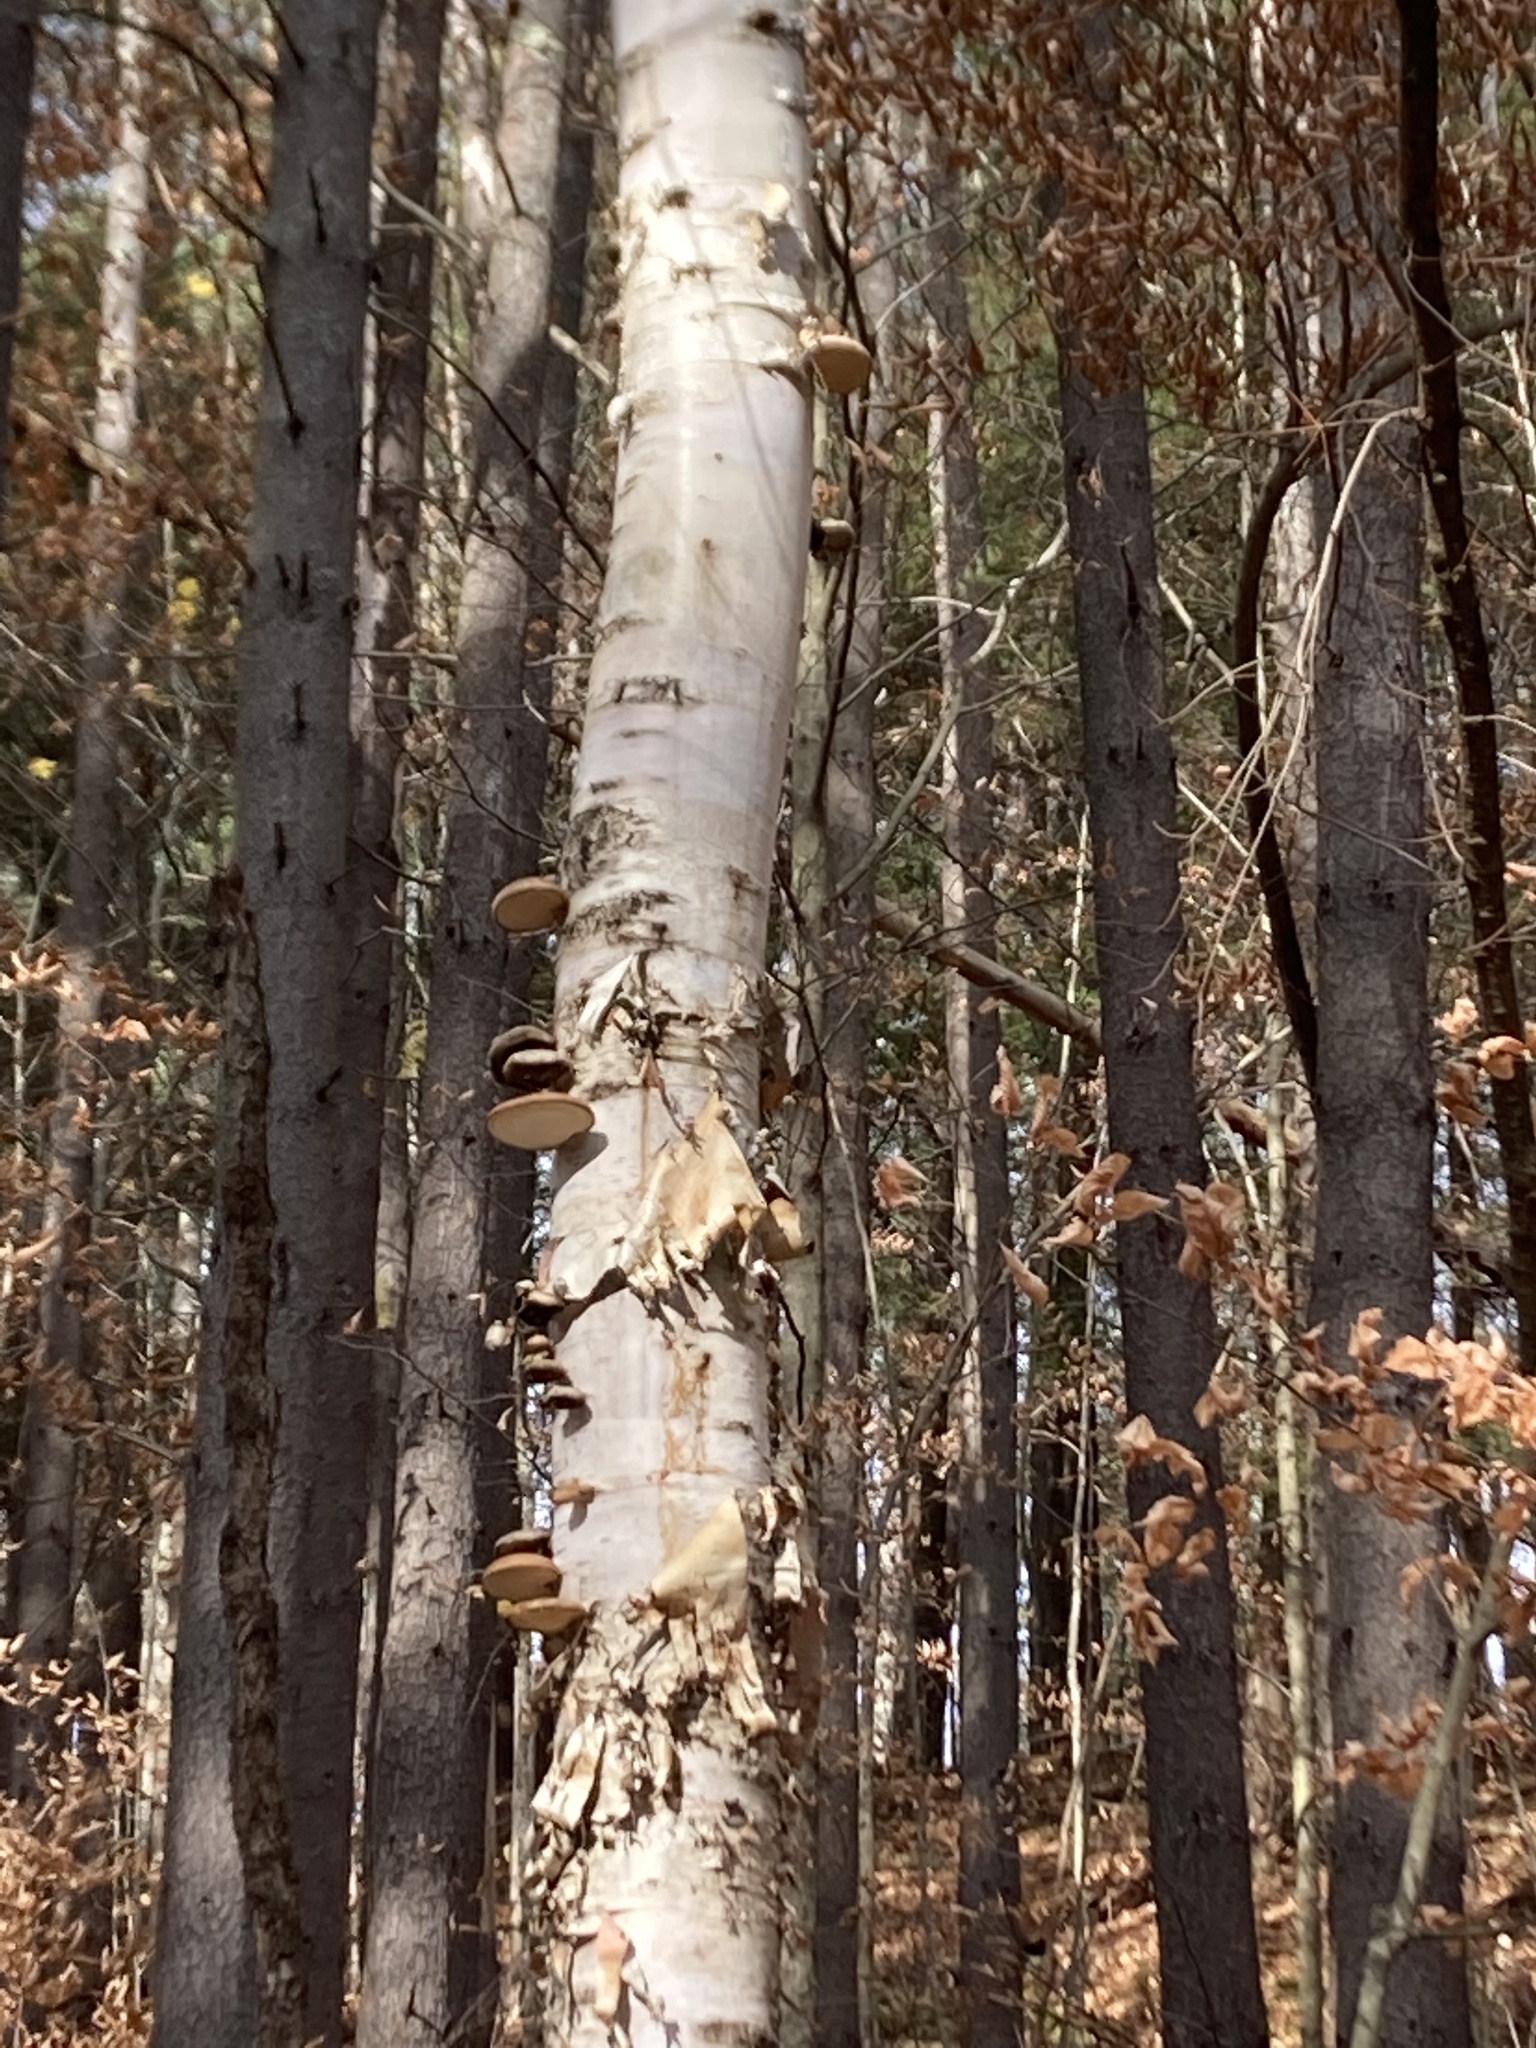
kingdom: Fungi
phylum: Basidiomycota
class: Agaricomycetes
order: Polyporales
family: Fomitopsidaceae
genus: Fomitopsis
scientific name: Fomitopsis betulina
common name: Birch polypore
